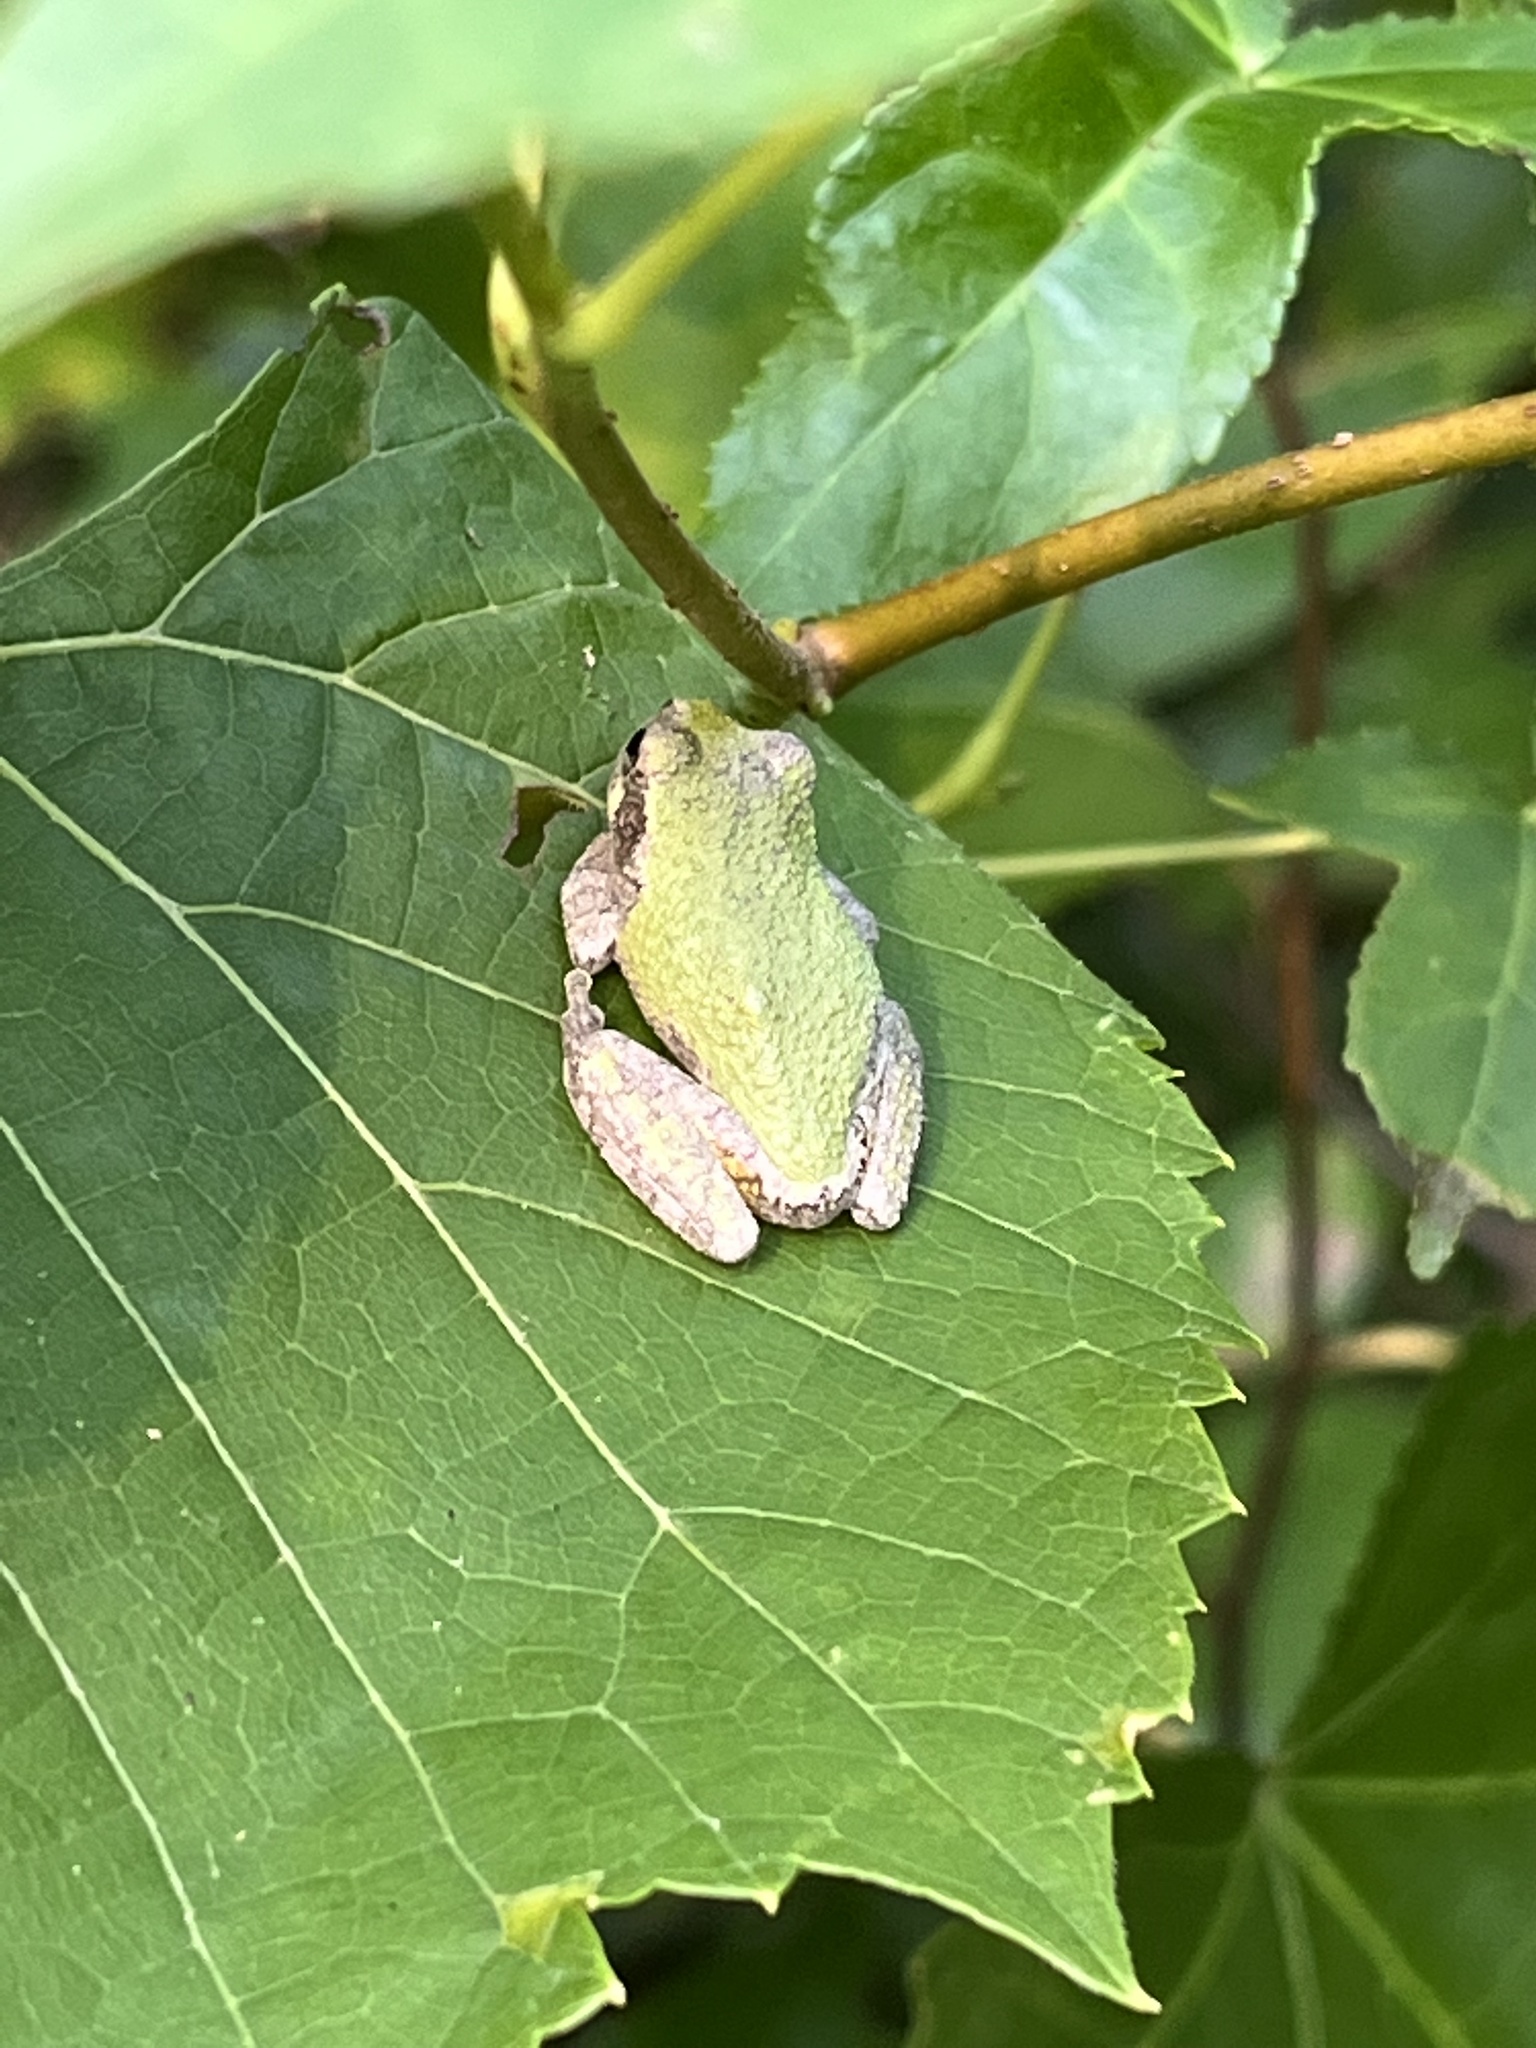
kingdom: Animalia
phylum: Chordata
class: Amphibia
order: Anura
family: Hylidae
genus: Dryophytes
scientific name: Dryophytes chrysoscelis
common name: Cope's gray treefrog
